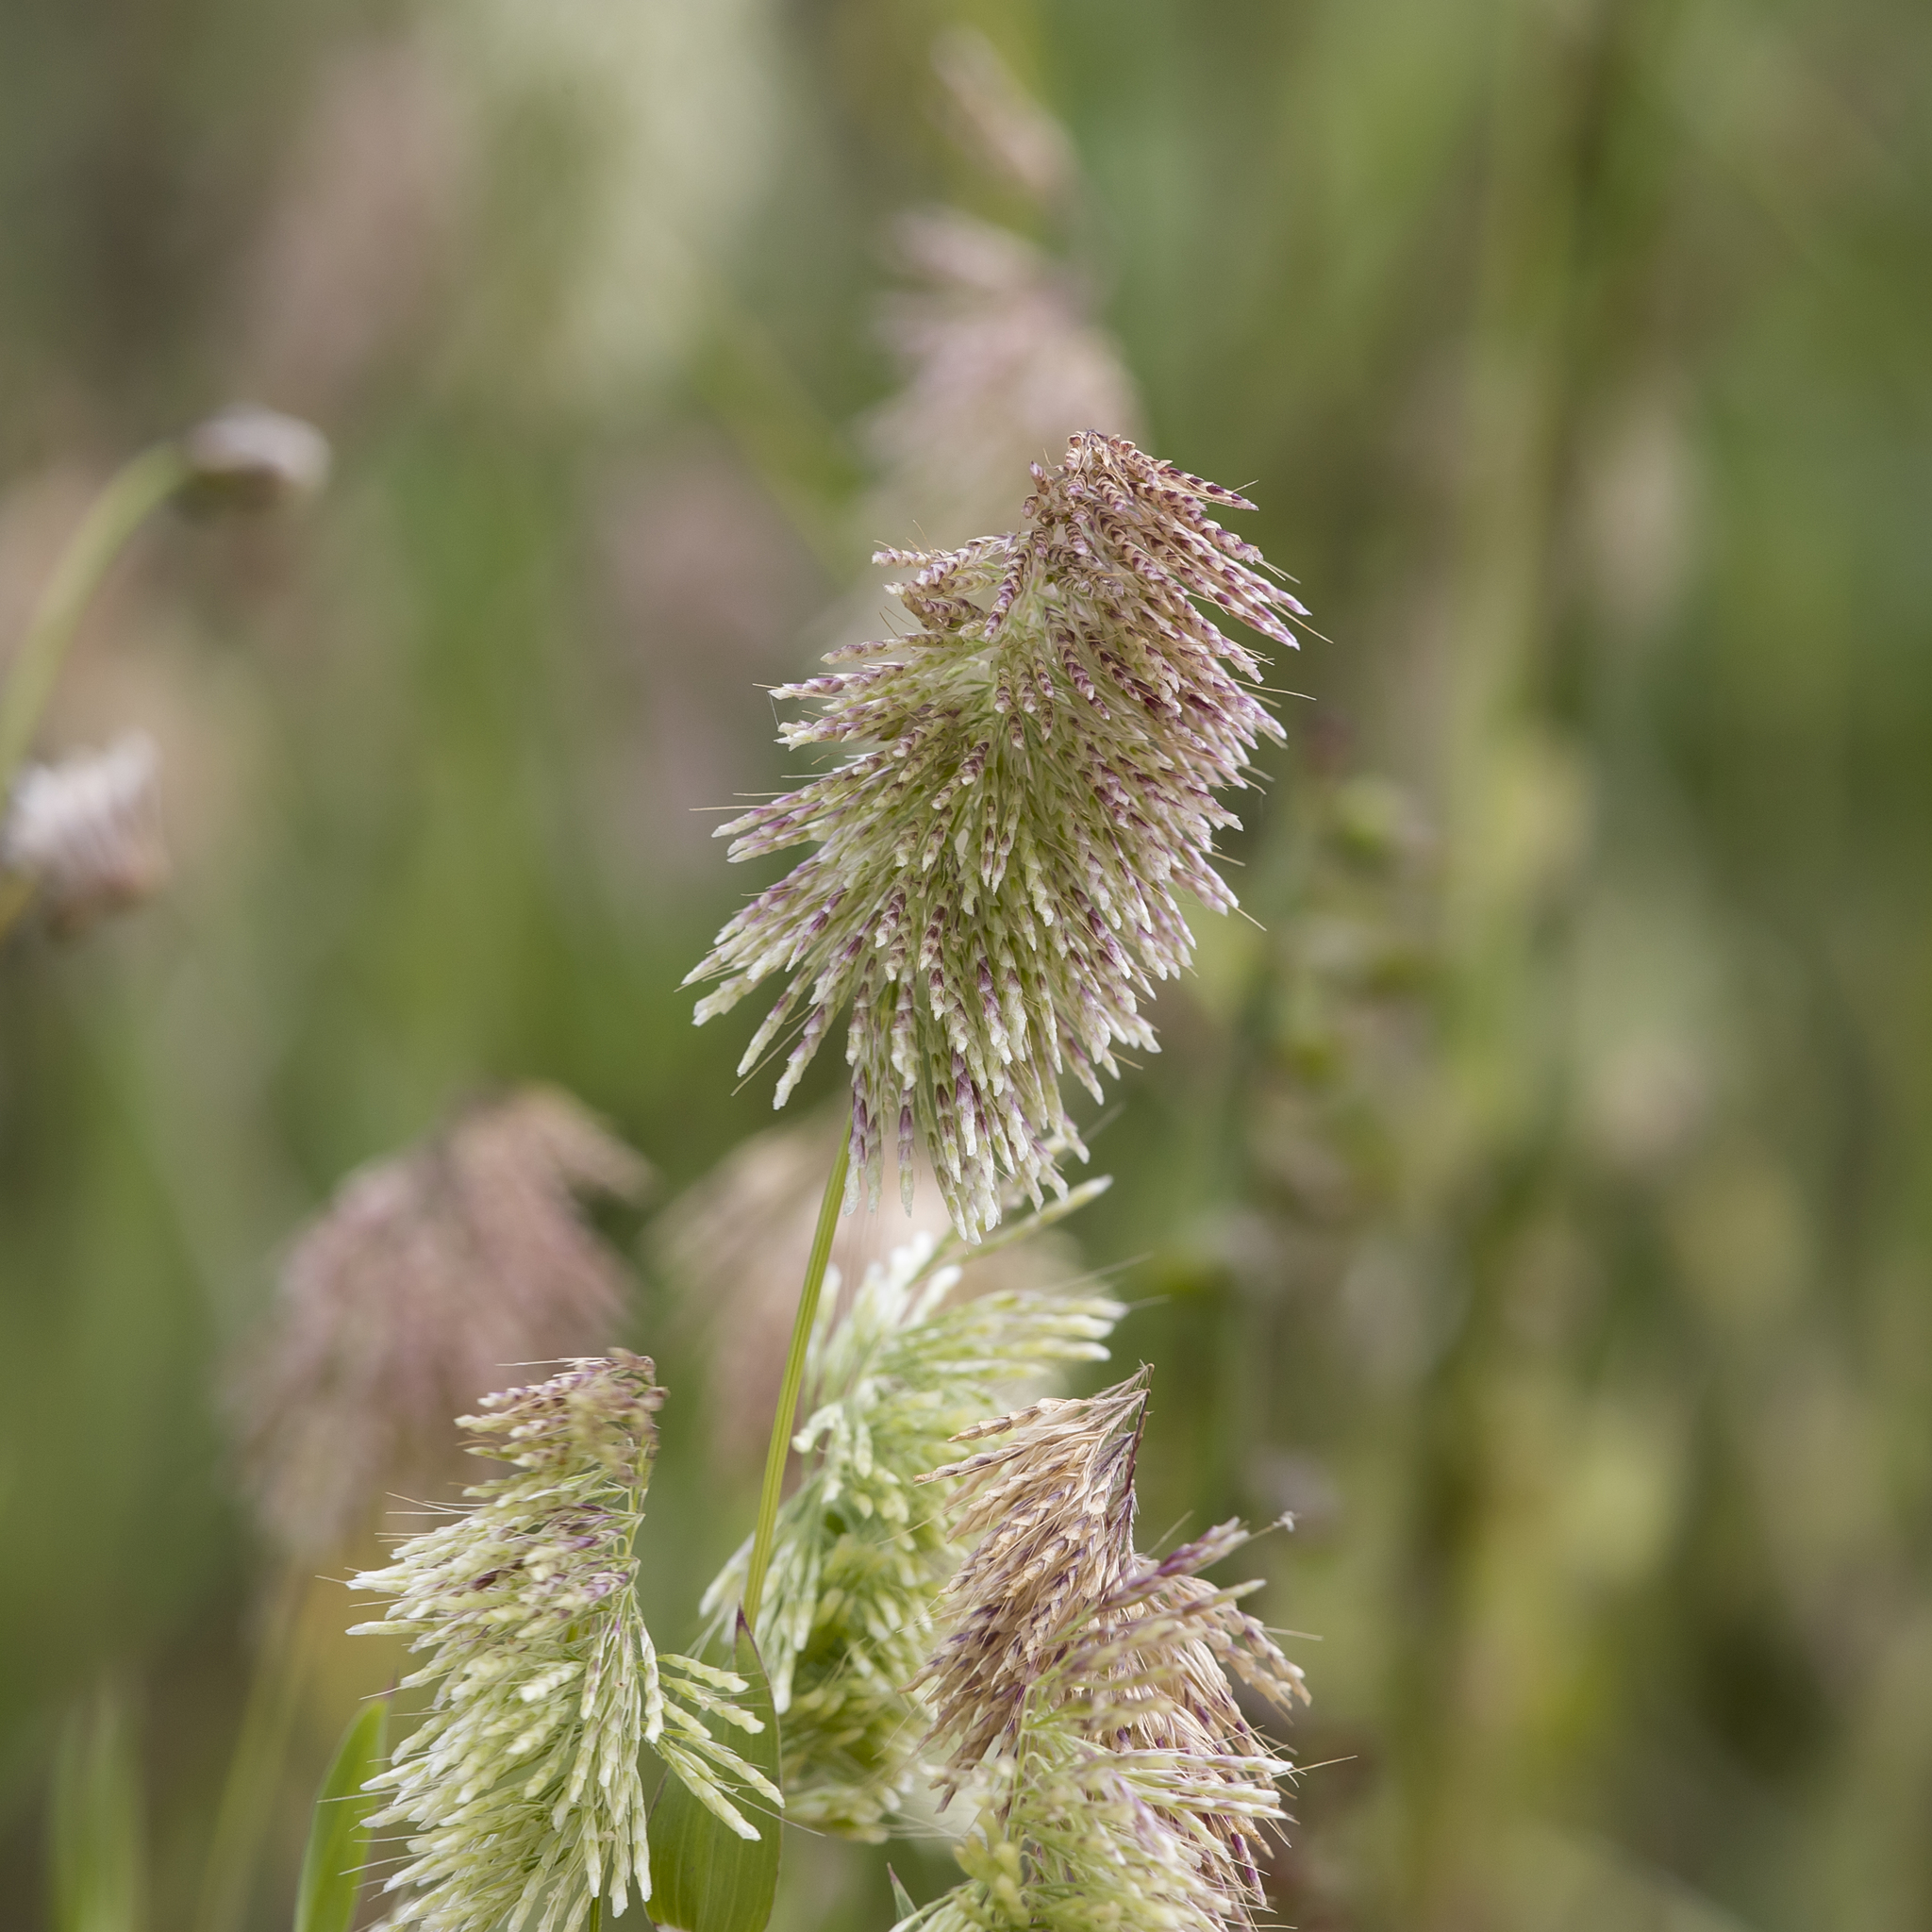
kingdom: Plantae
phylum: Tracheophyta
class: Liliopsida
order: Poales
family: Poaceae
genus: Lamarckia
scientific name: Lamarckia aurea
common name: Golden dog's-tail
